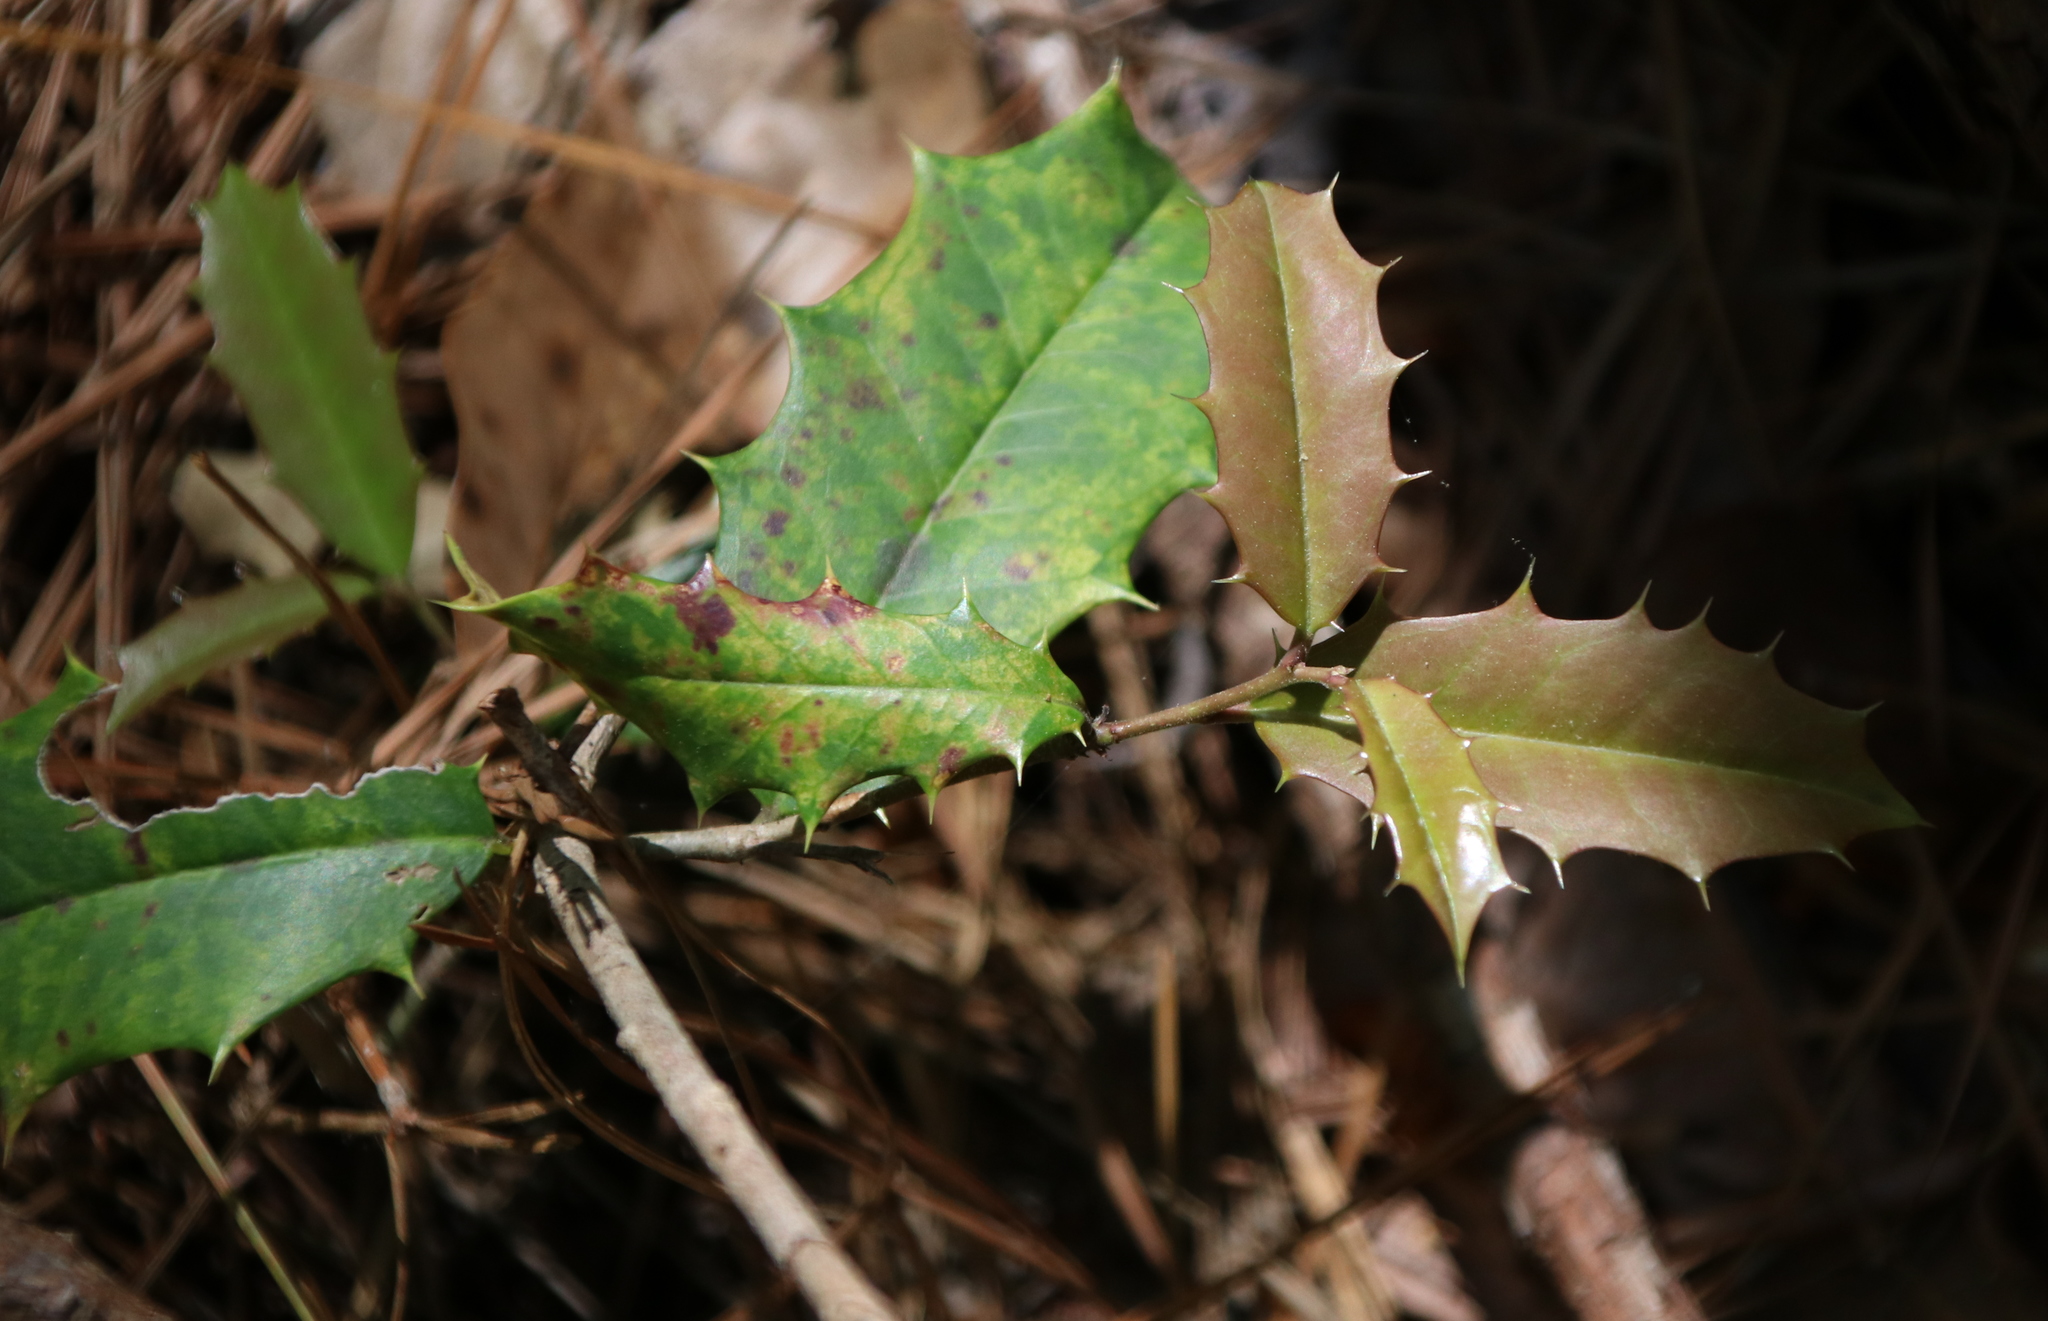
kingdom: Plantae
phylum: Tracheophyta
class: Magnoliopsida
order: Aquifoliales
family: Aquifoliaceae
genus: Ilex
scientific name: Ilex opaca
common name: American holly
